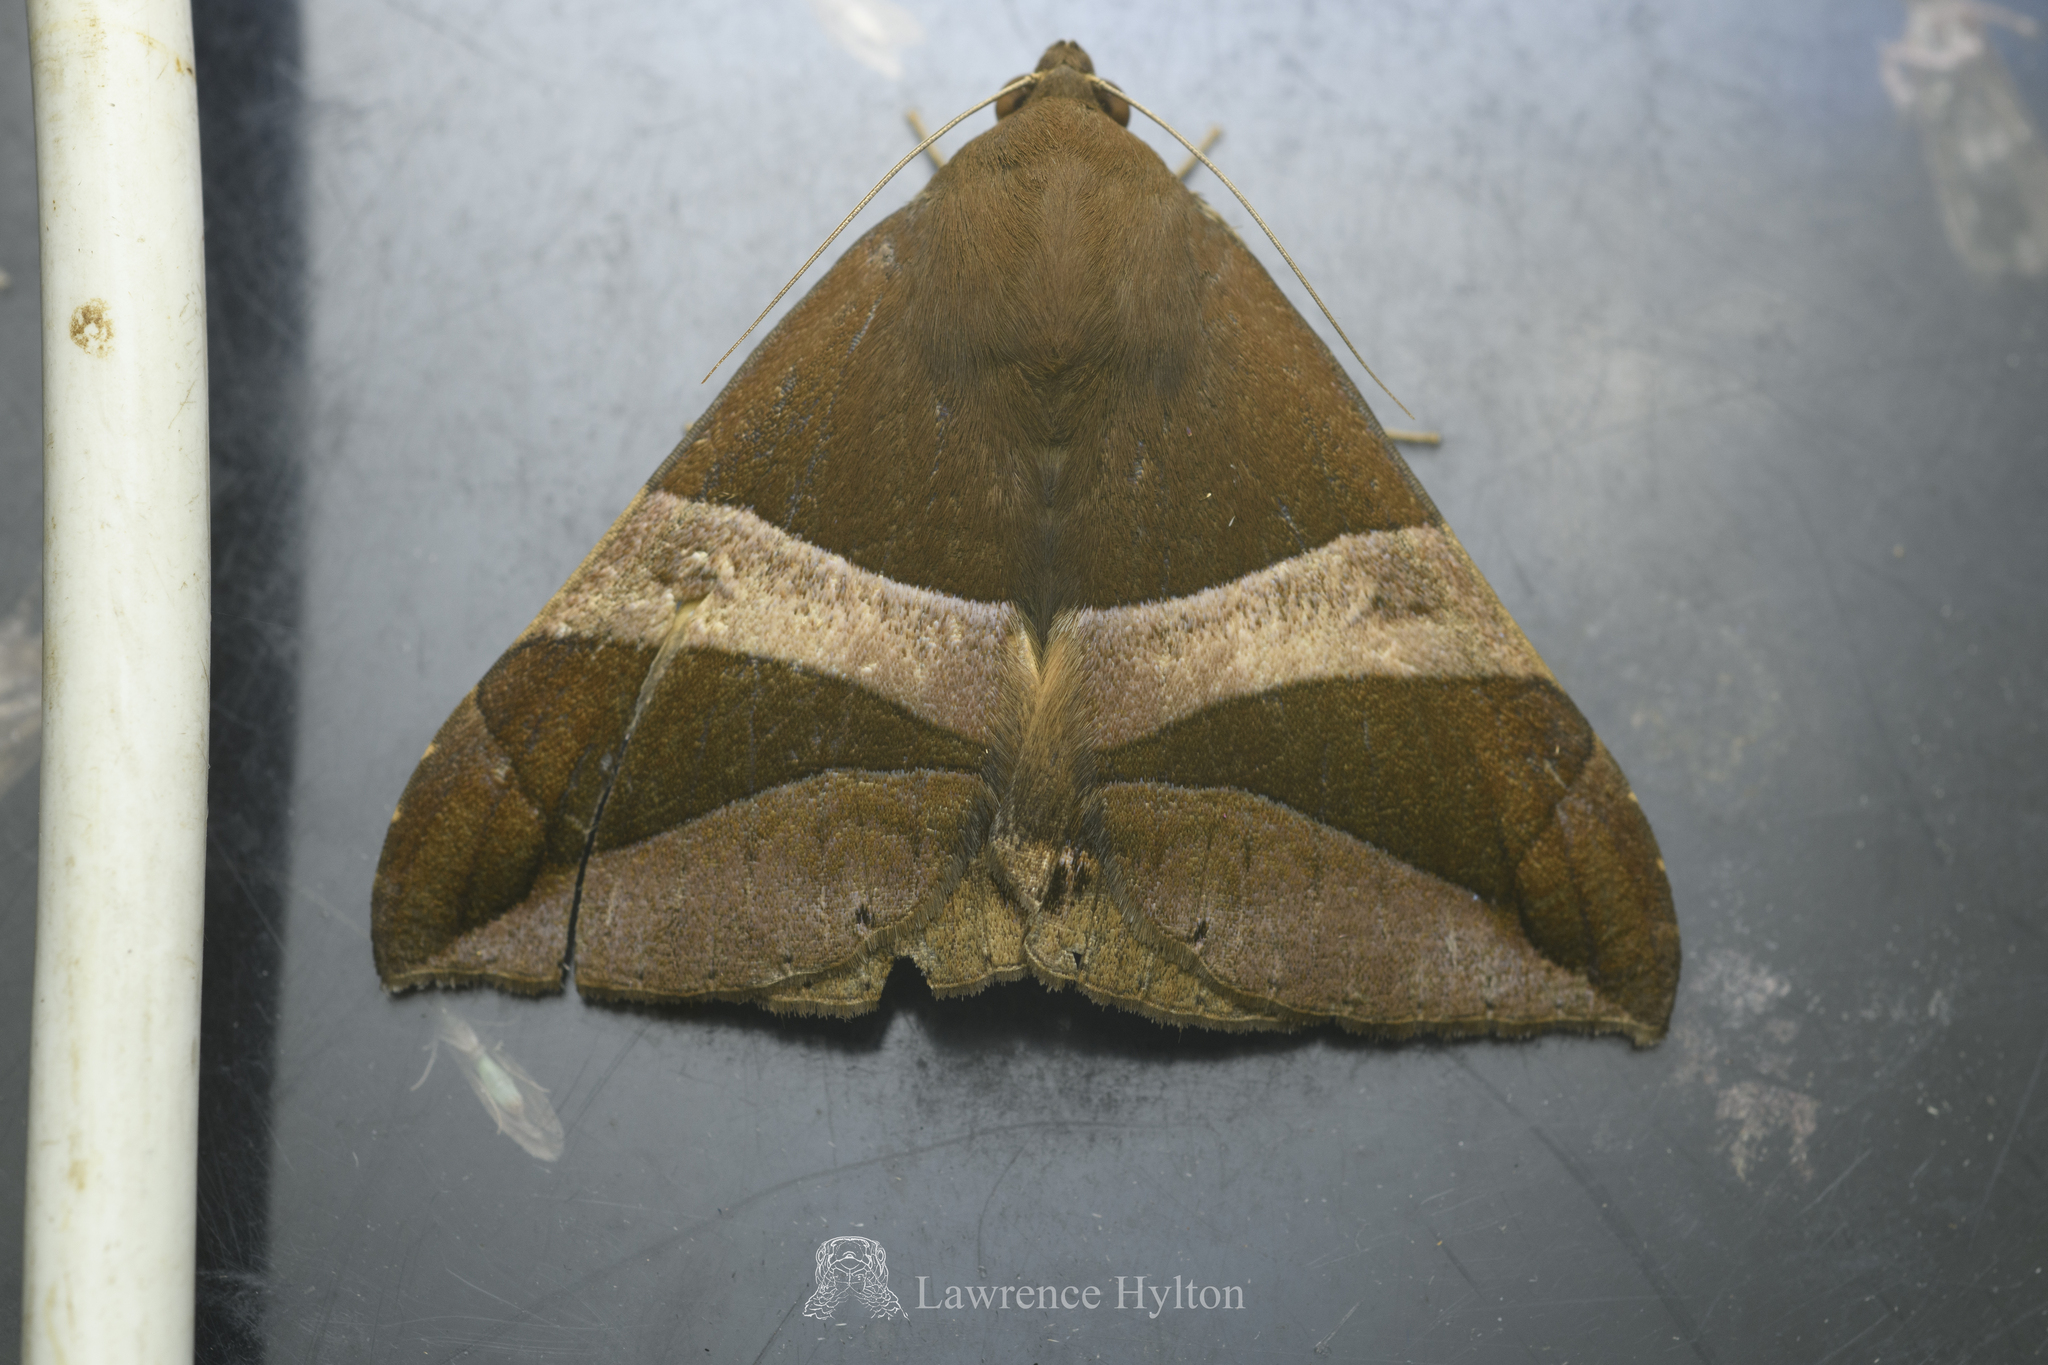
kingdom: Animalia
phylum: Arthropoda
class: Insecta
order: Lepidoptera
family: Erebidae
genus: Bastilla
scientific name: Bastilla fulvotaenia
